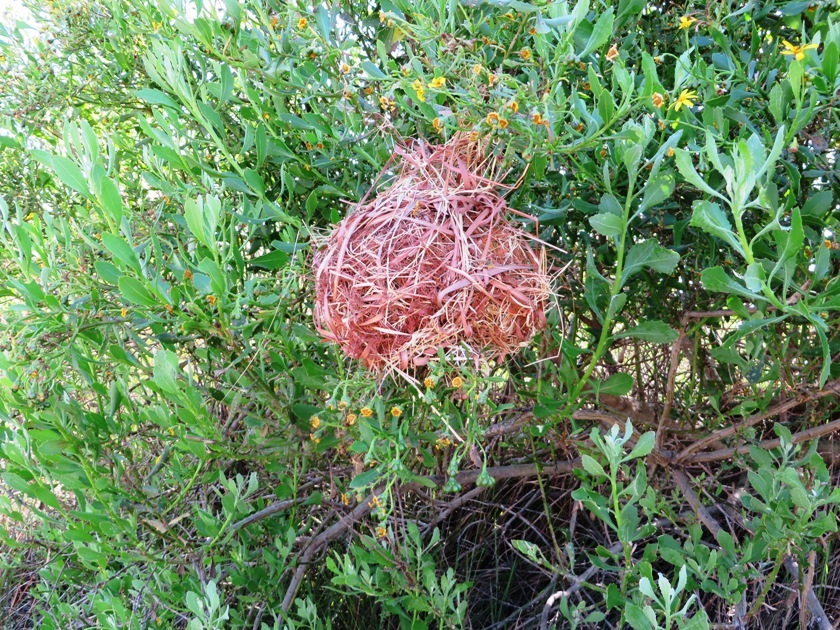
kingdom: Animalia
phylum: Chordata
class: Aves
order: Passeriformes
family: Ploceidae
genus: Ploceus
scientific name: Ploceus capensis
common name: Cape weaver
